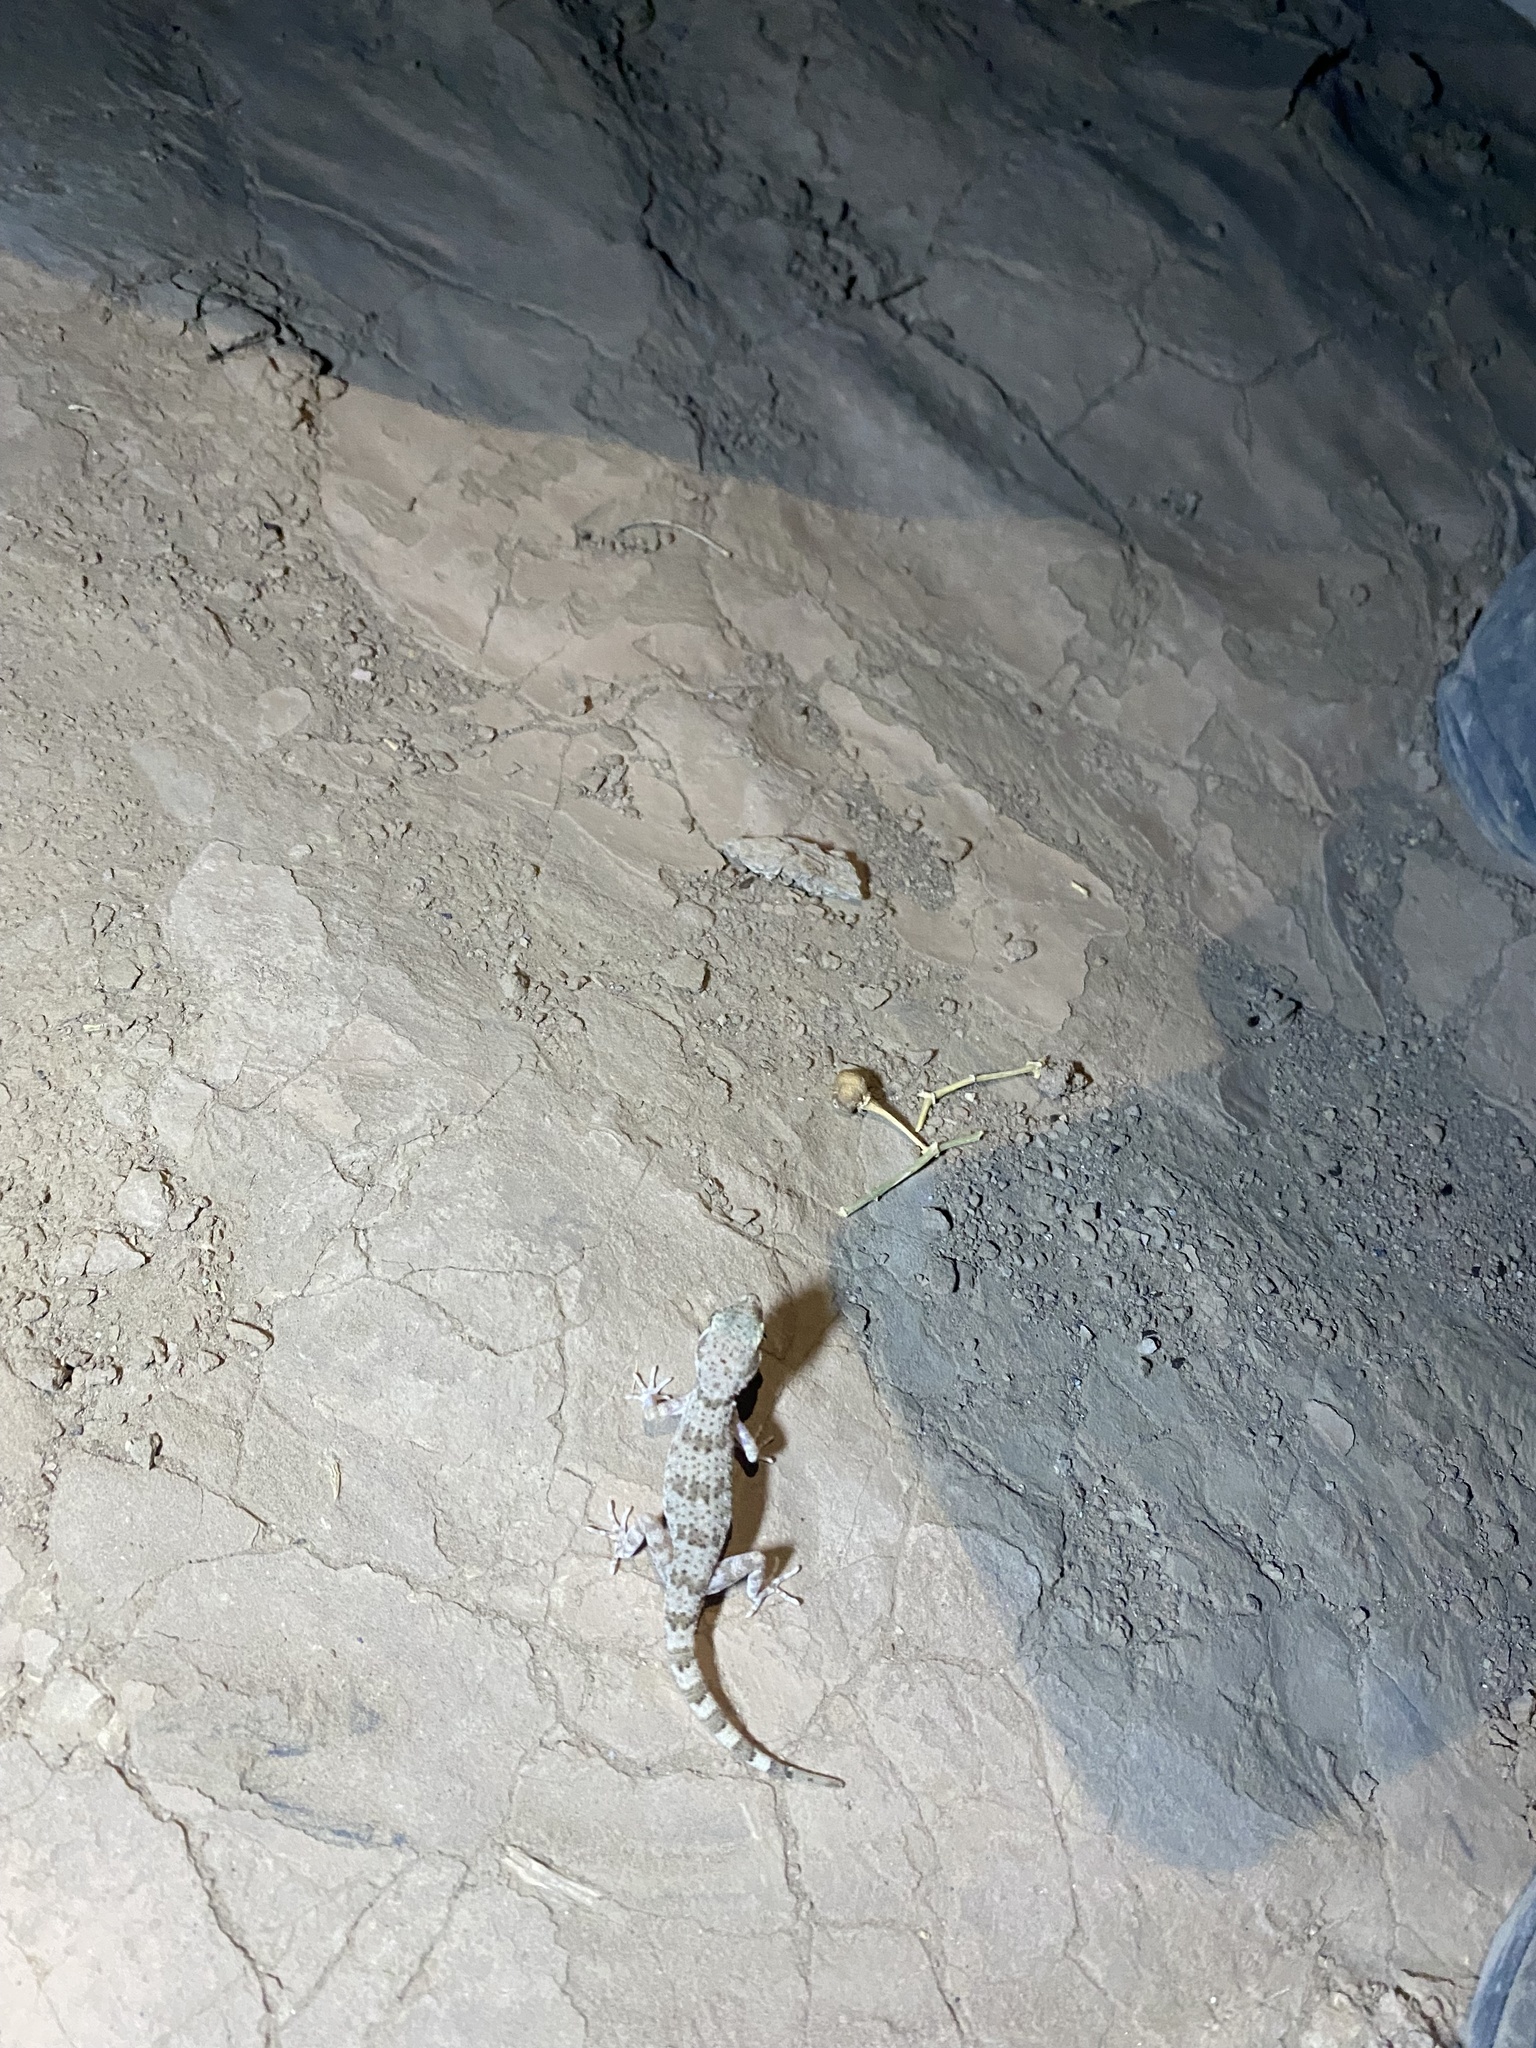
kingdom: Animalia
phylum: Chordata
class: Squamata
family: Gekkonidae
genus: Bunopus
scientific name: Bunopus crassicauda
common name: Thick-tailed tuberculated gecko
